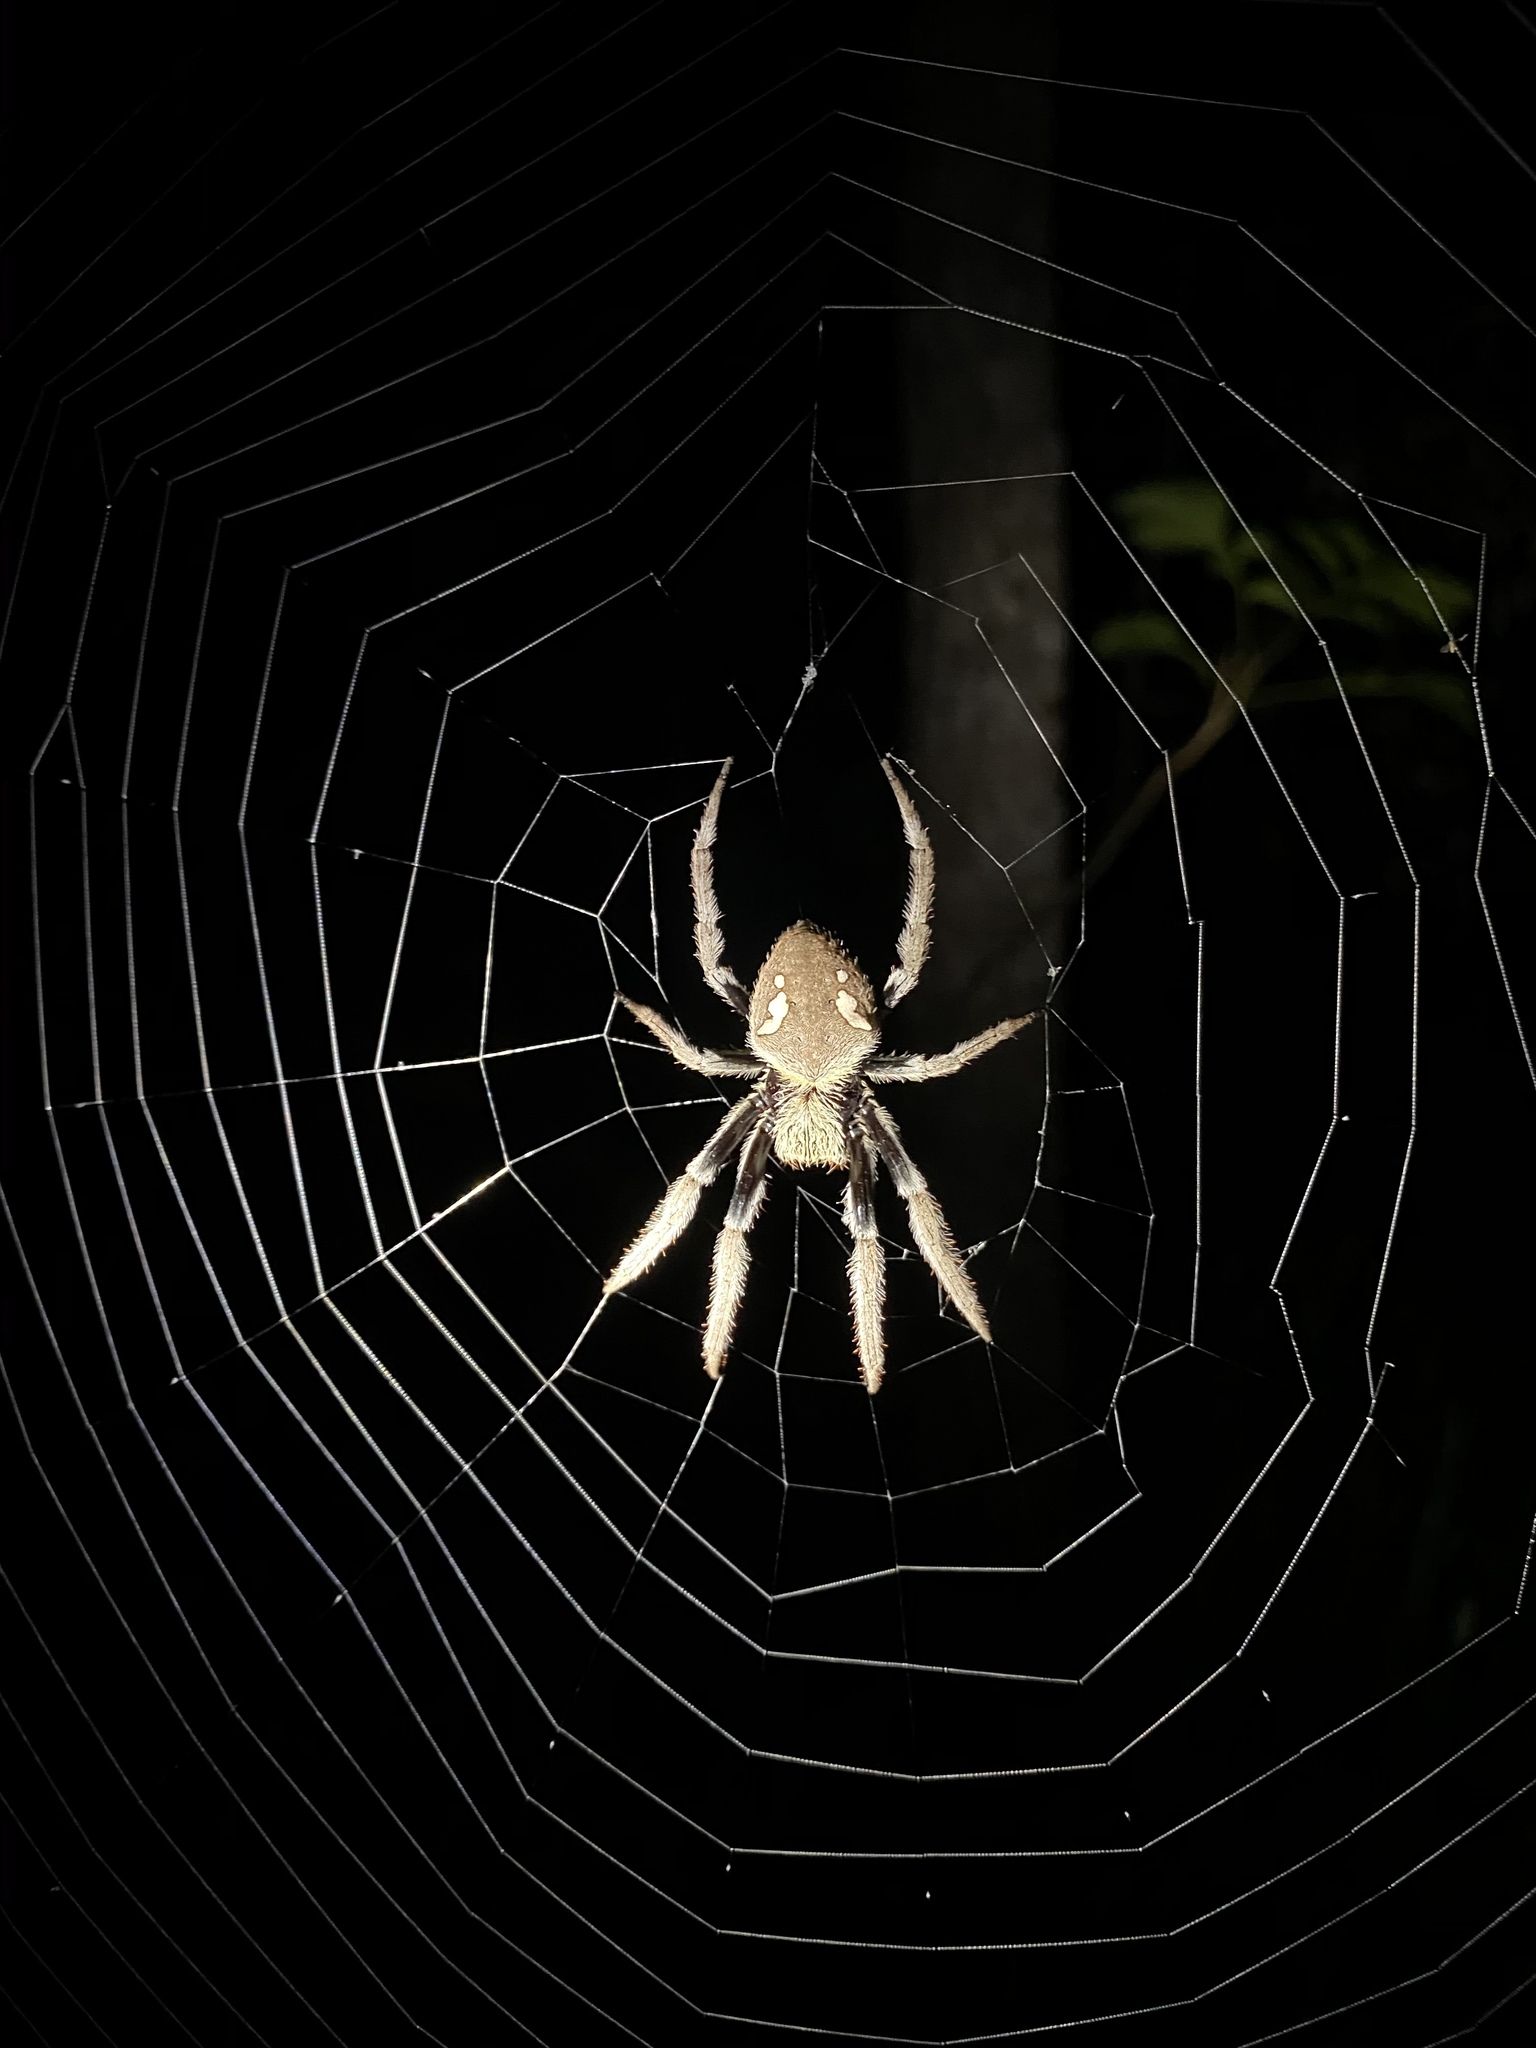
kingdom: Animalia
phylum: Arthropoda
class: Arachnida
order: Araneae
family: Araneidae
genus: Hortophora
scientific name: Hortophora transmarina
